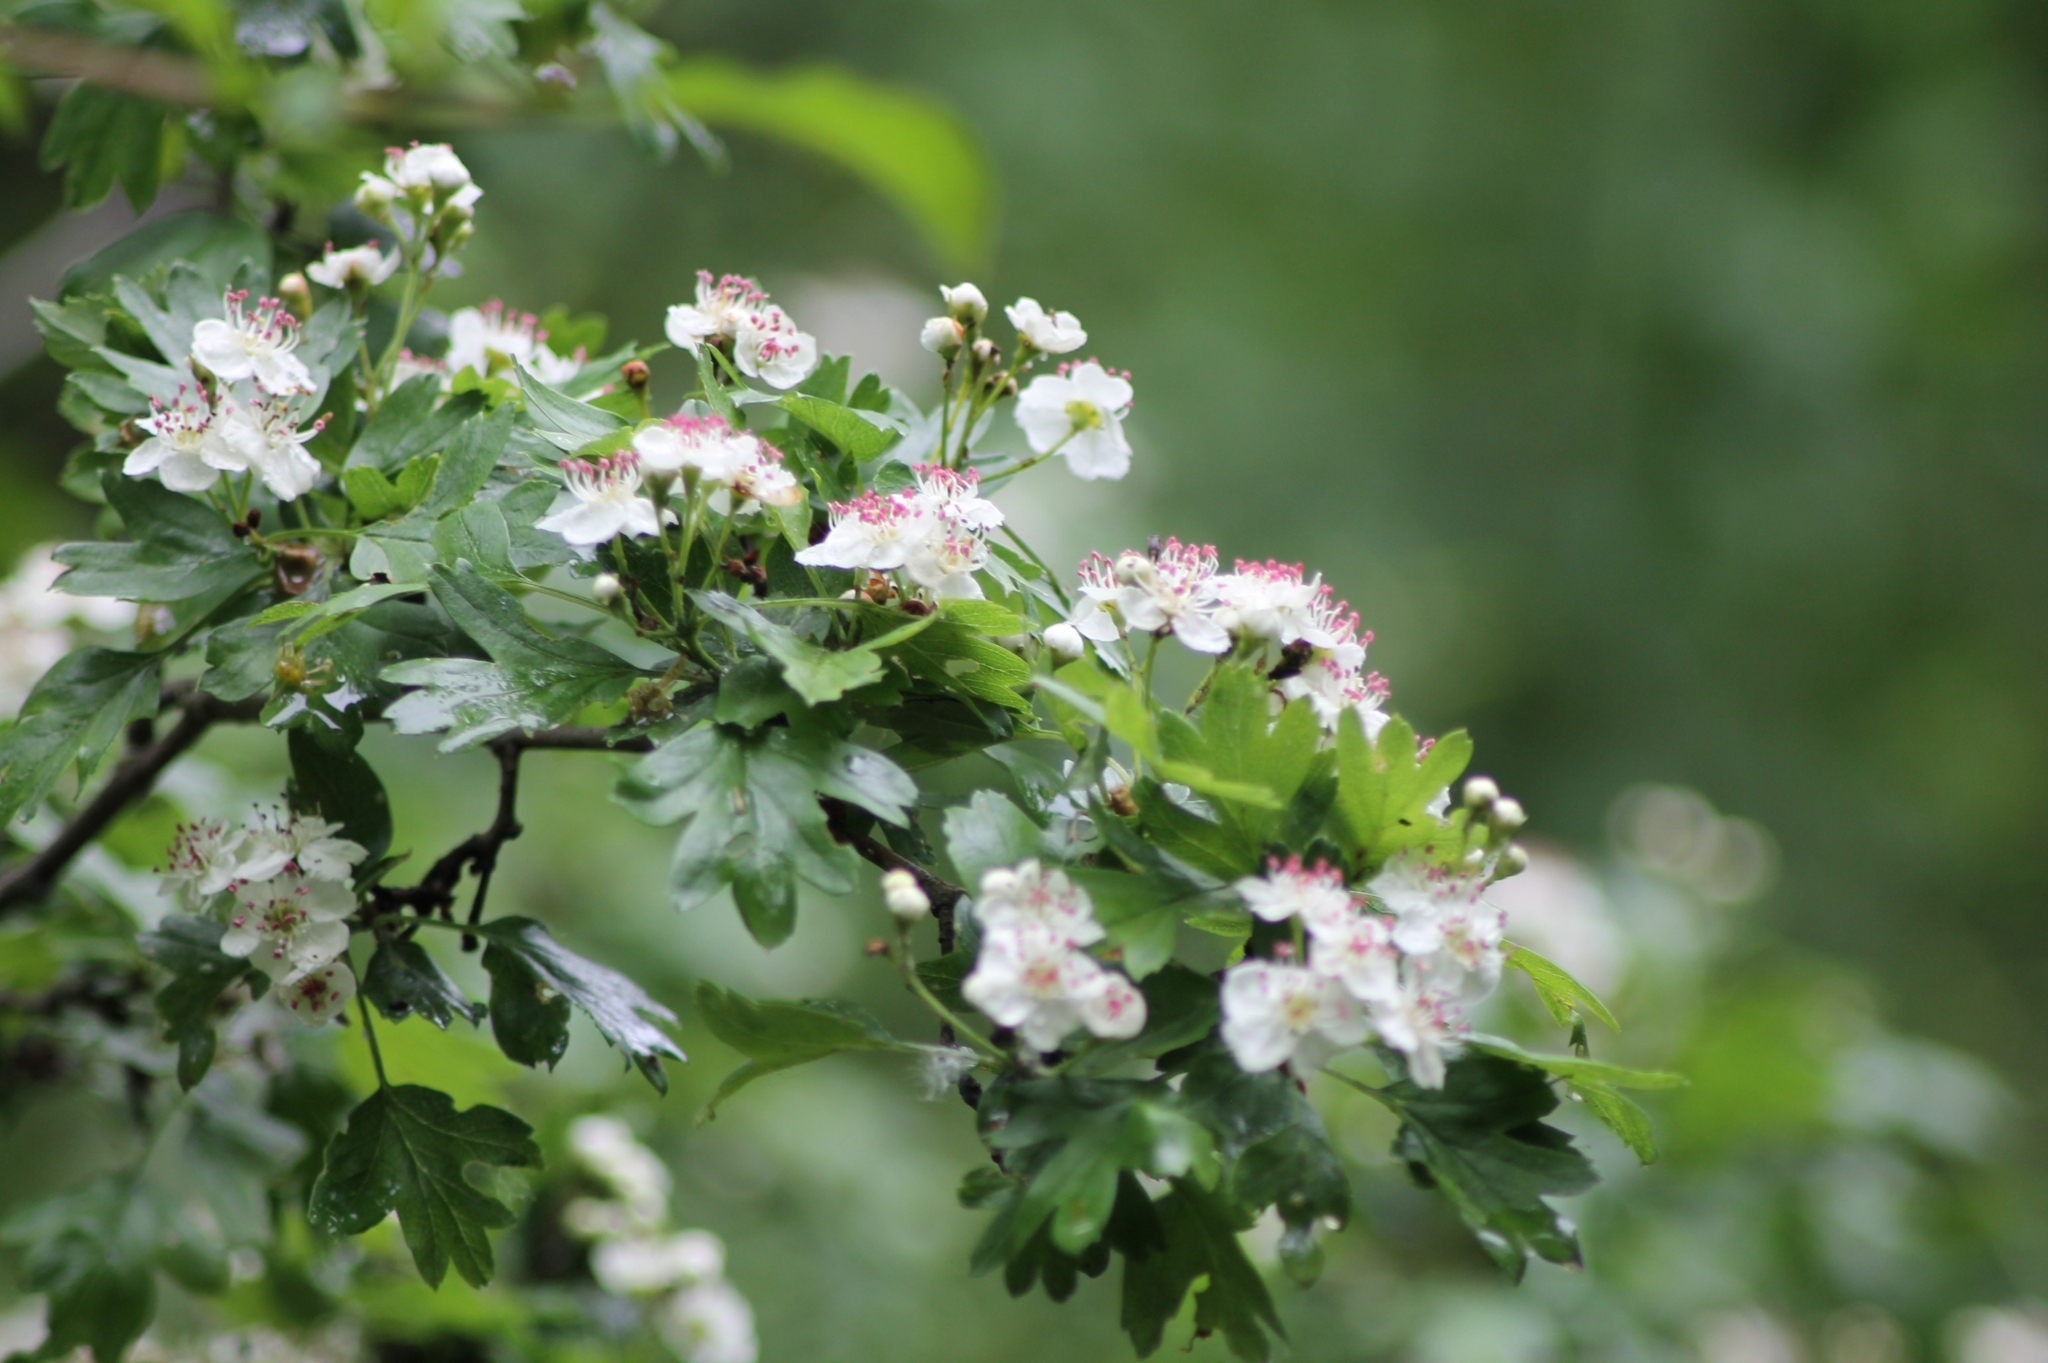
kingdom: Plantae
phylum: Tracheophyta
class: Magnoliopsida
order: Rosales
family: Rosaceae
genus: Crataegus
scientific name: Crataegus monogyna
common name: Hawthorn
